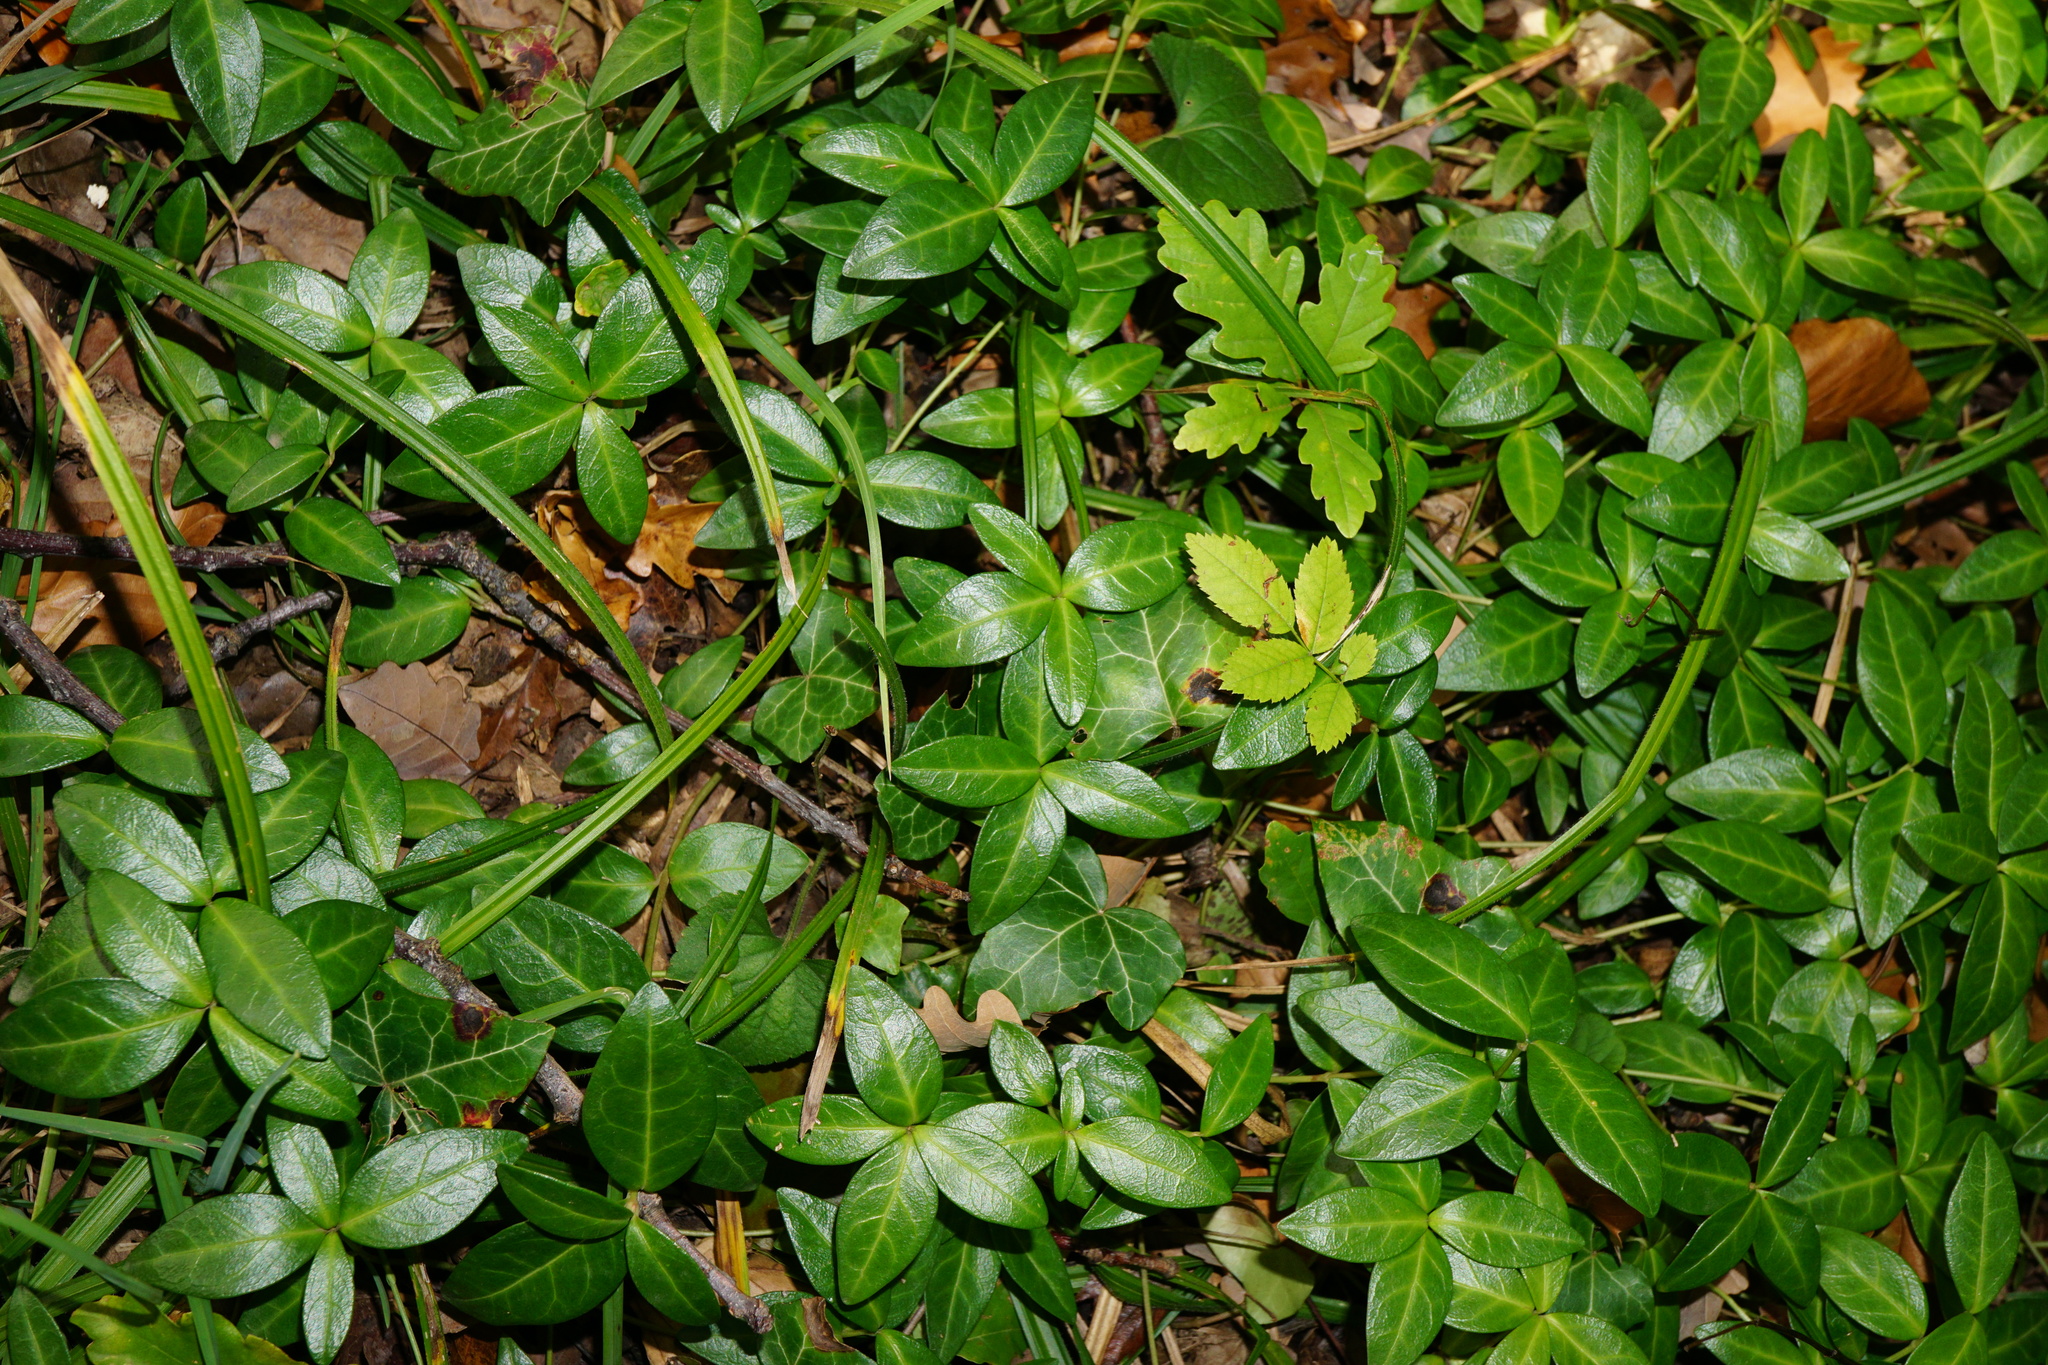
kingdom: Plantae
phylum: Tracheophyta
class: Magnoliopsida
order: Gentianales
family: Apocynaceae
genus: Vinca
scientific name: Vinca minor
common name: Lesser periwinkle
